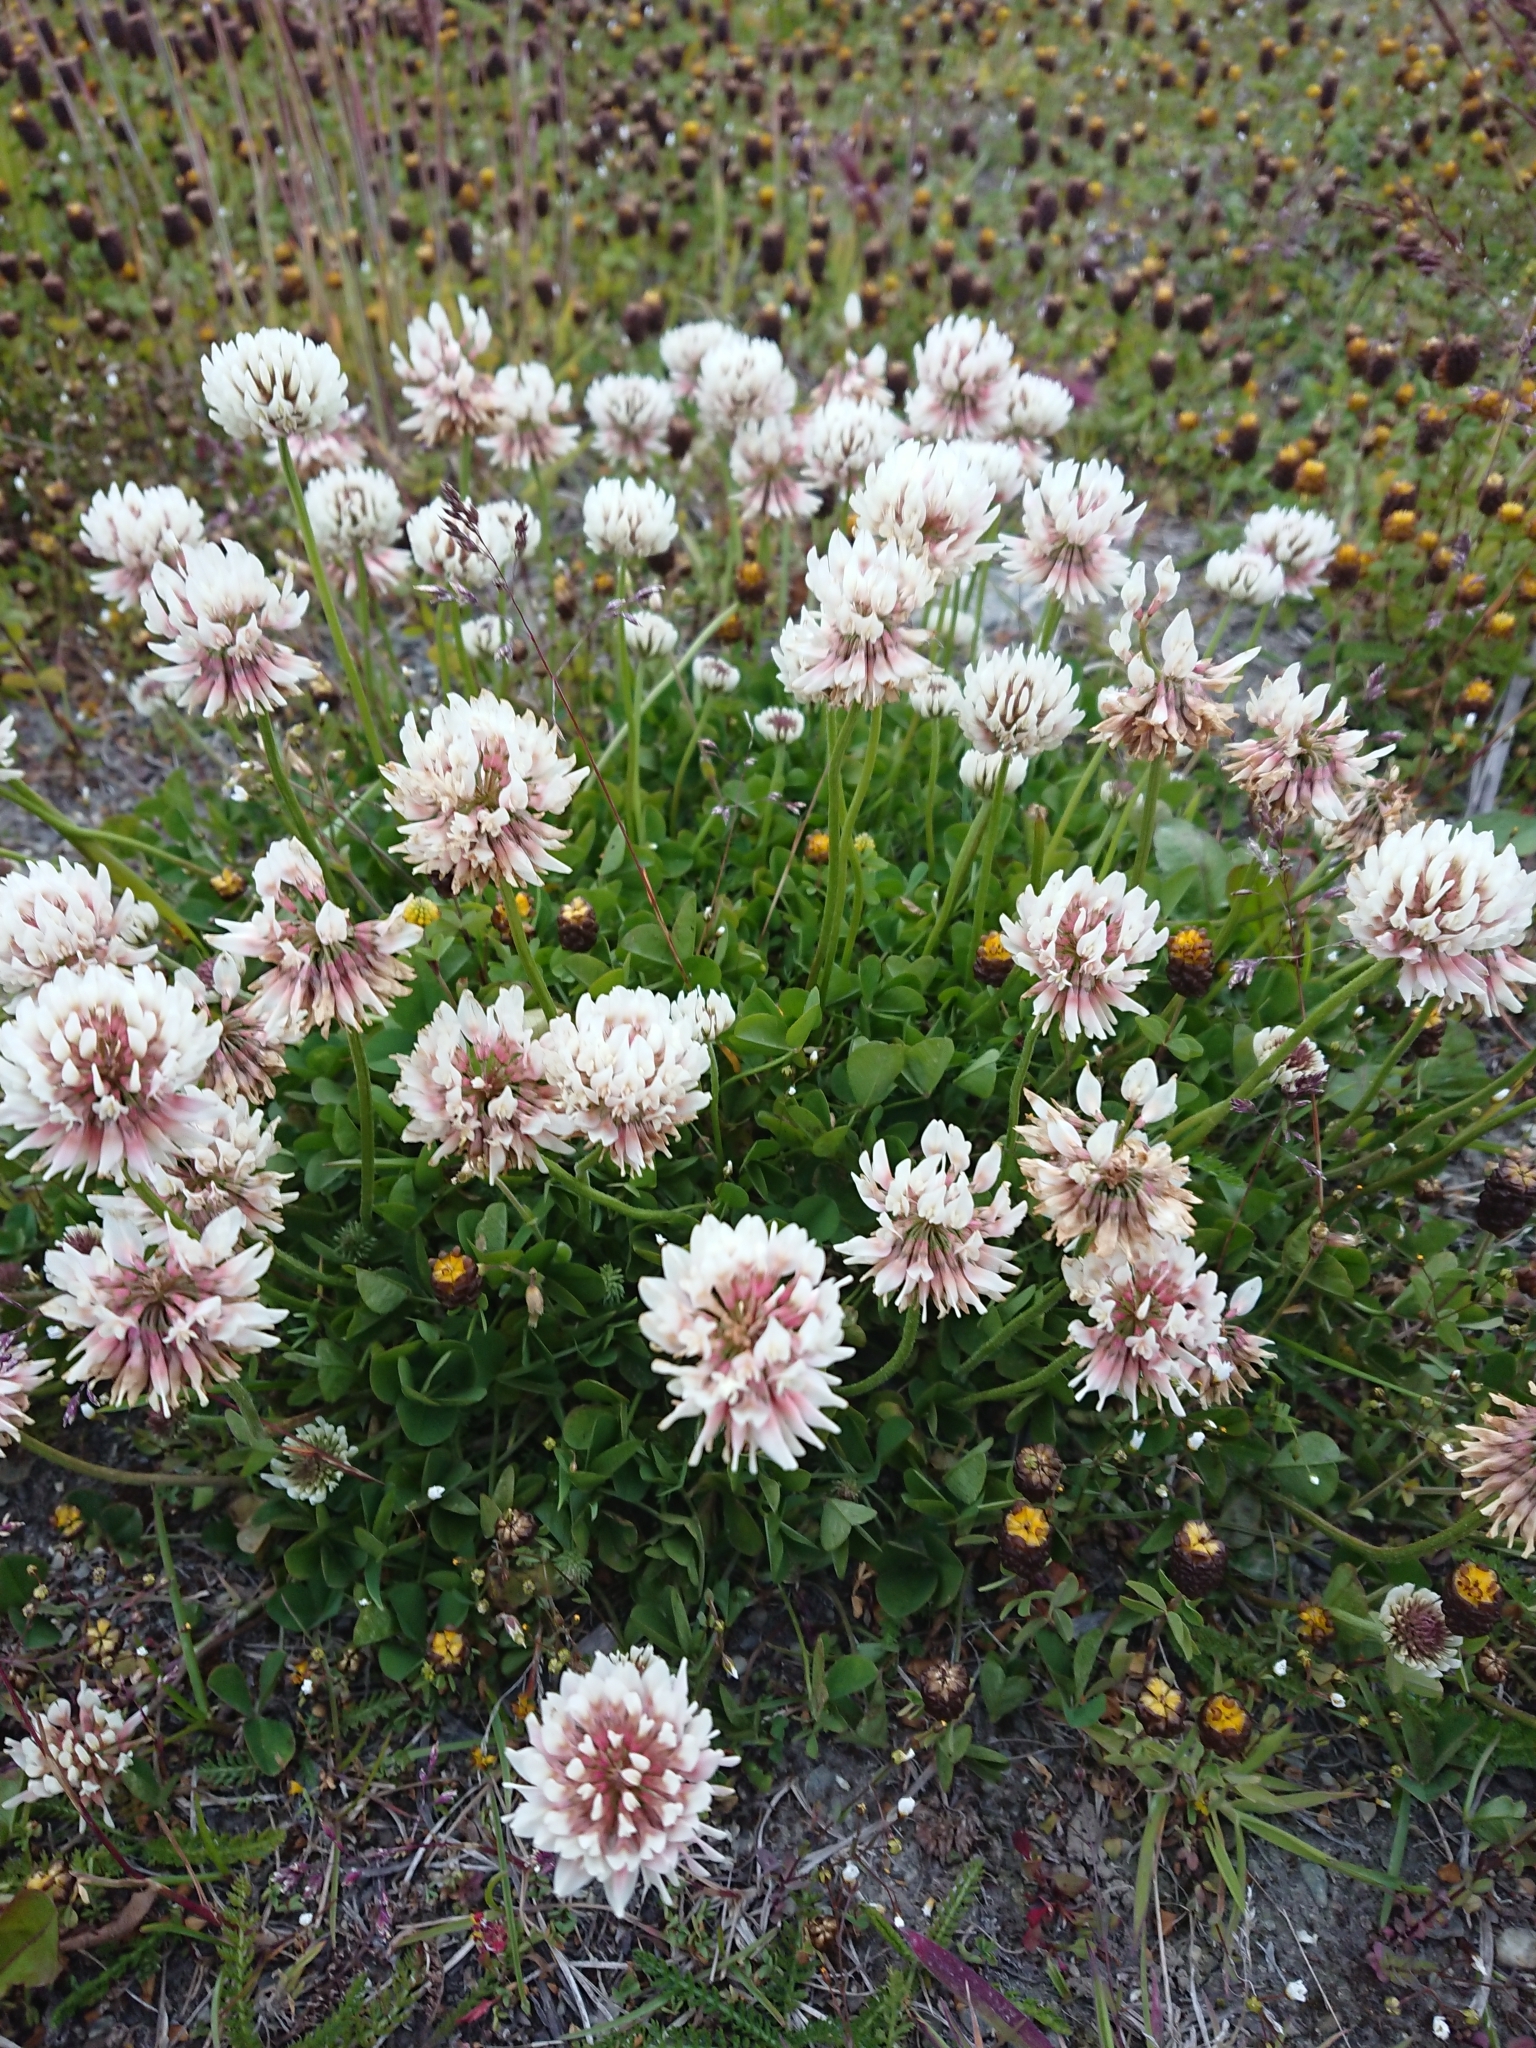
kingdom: Plantae
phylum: Tracheophyta
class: Magnoliopsida
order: Fabales
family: Fabaceae
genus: Trifolium
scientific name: Trifolium repens
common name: White clover
